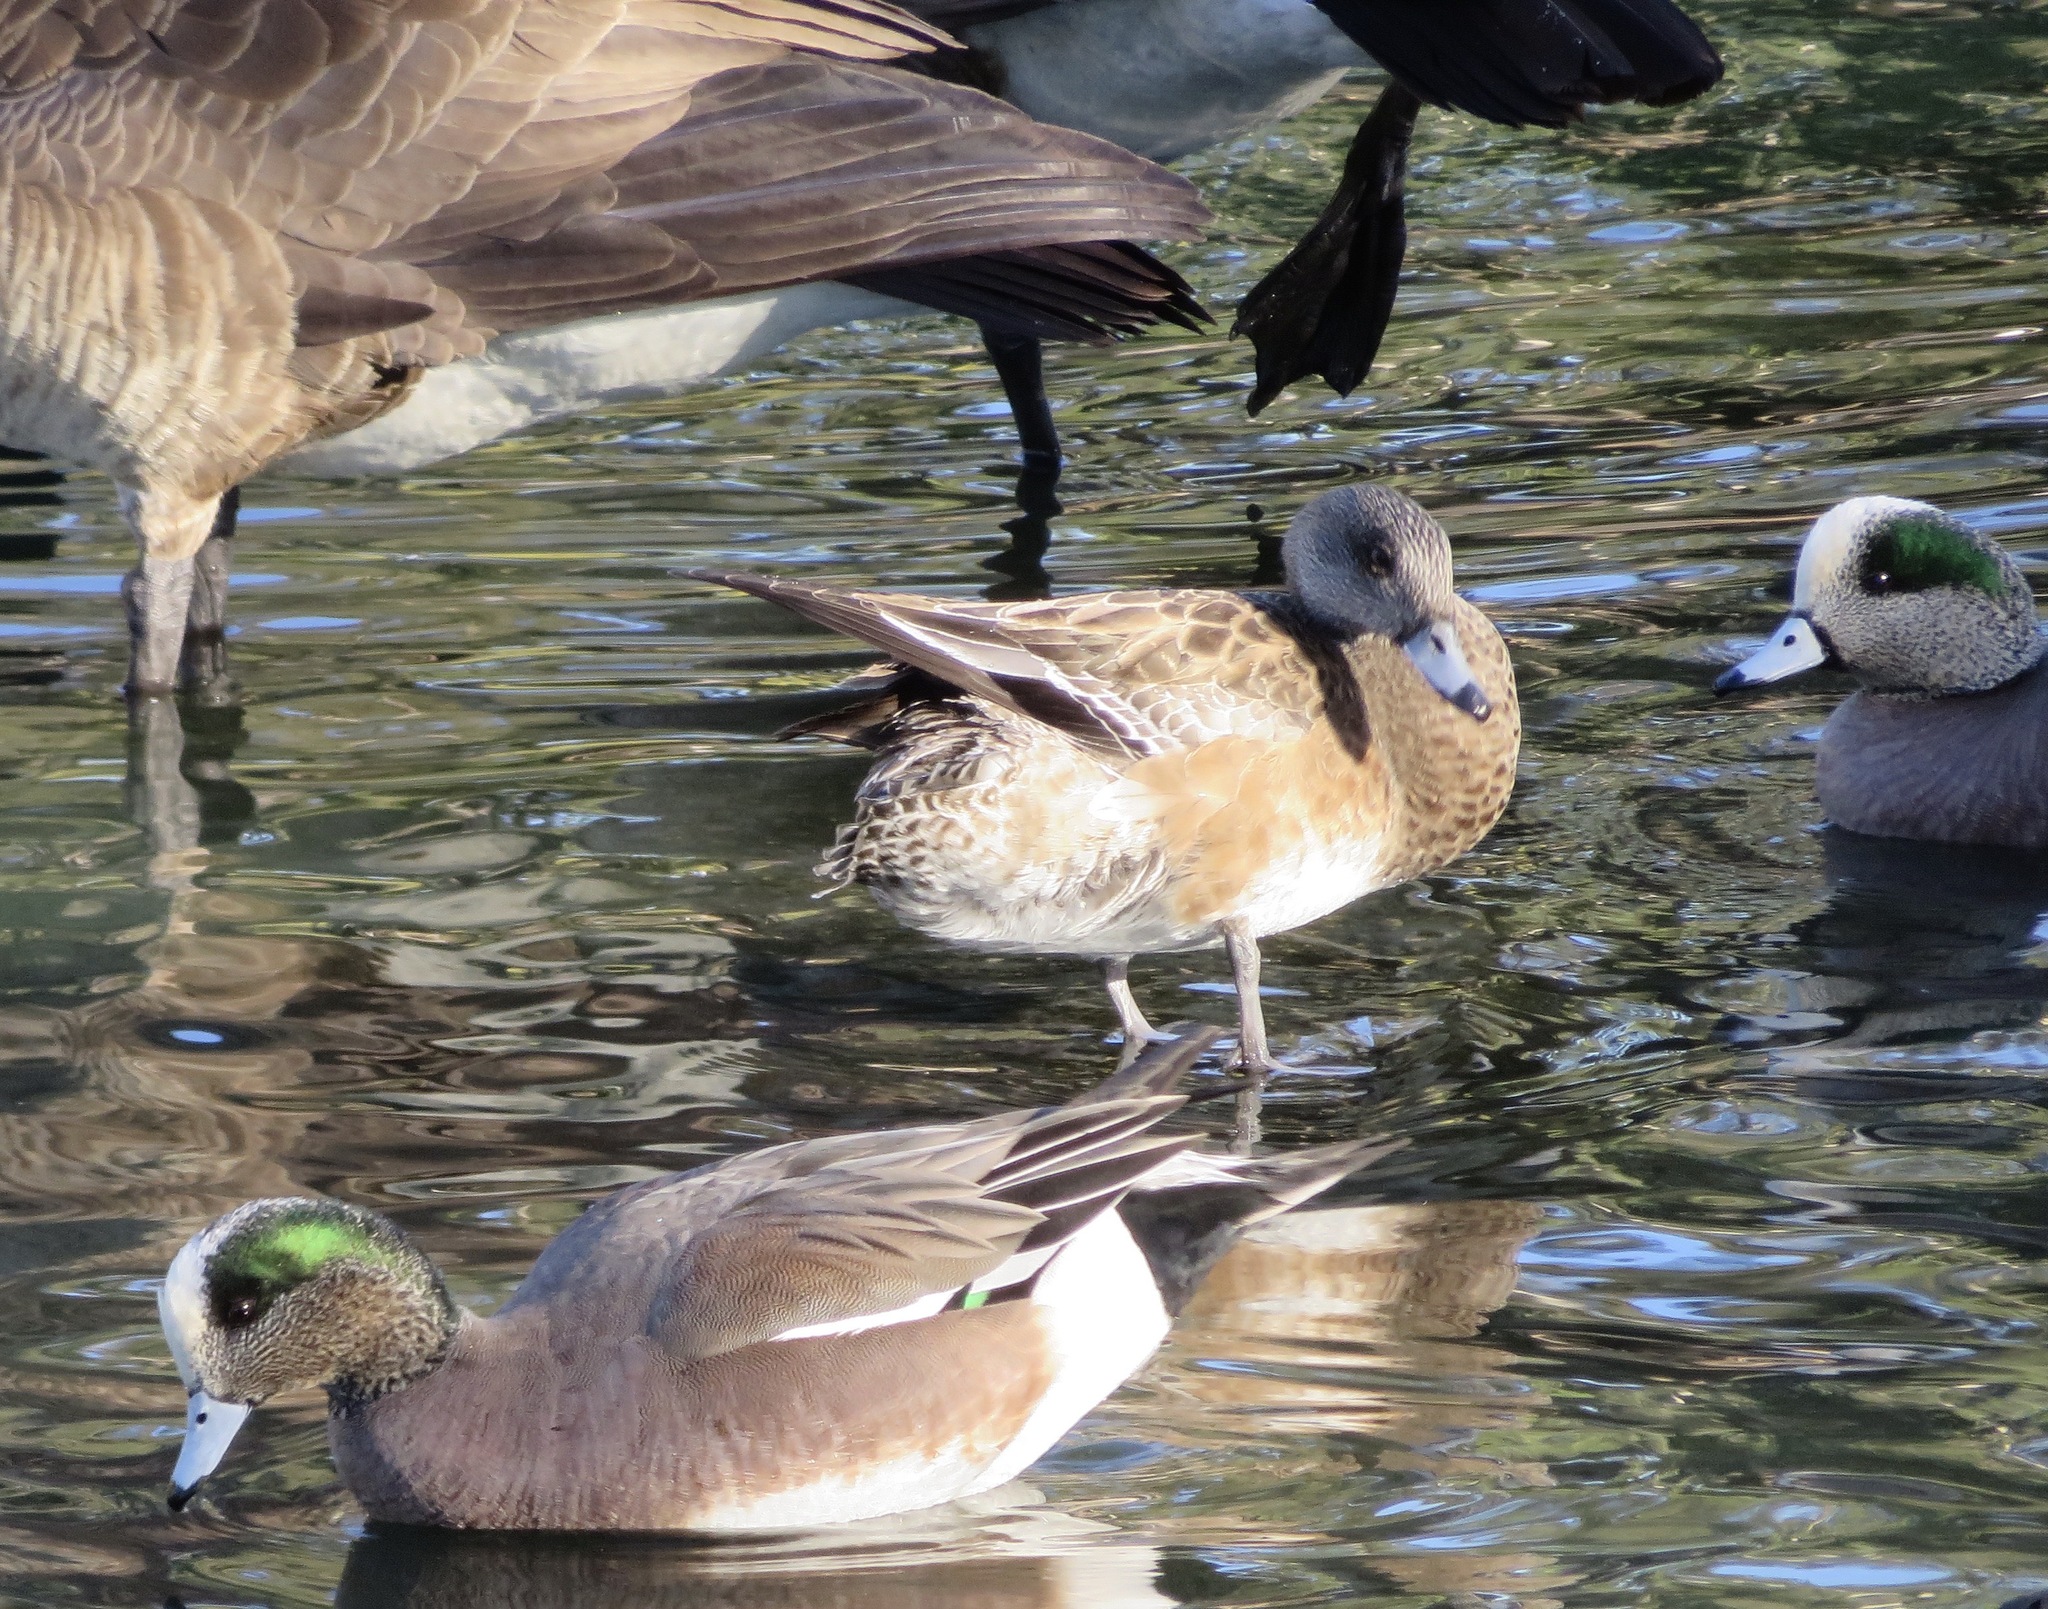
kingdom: Animalia
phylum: Chordata
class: Aves
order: Anseriformes
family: Anatidae
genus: Mareca
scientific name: Mareca americana
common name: American wigeon
